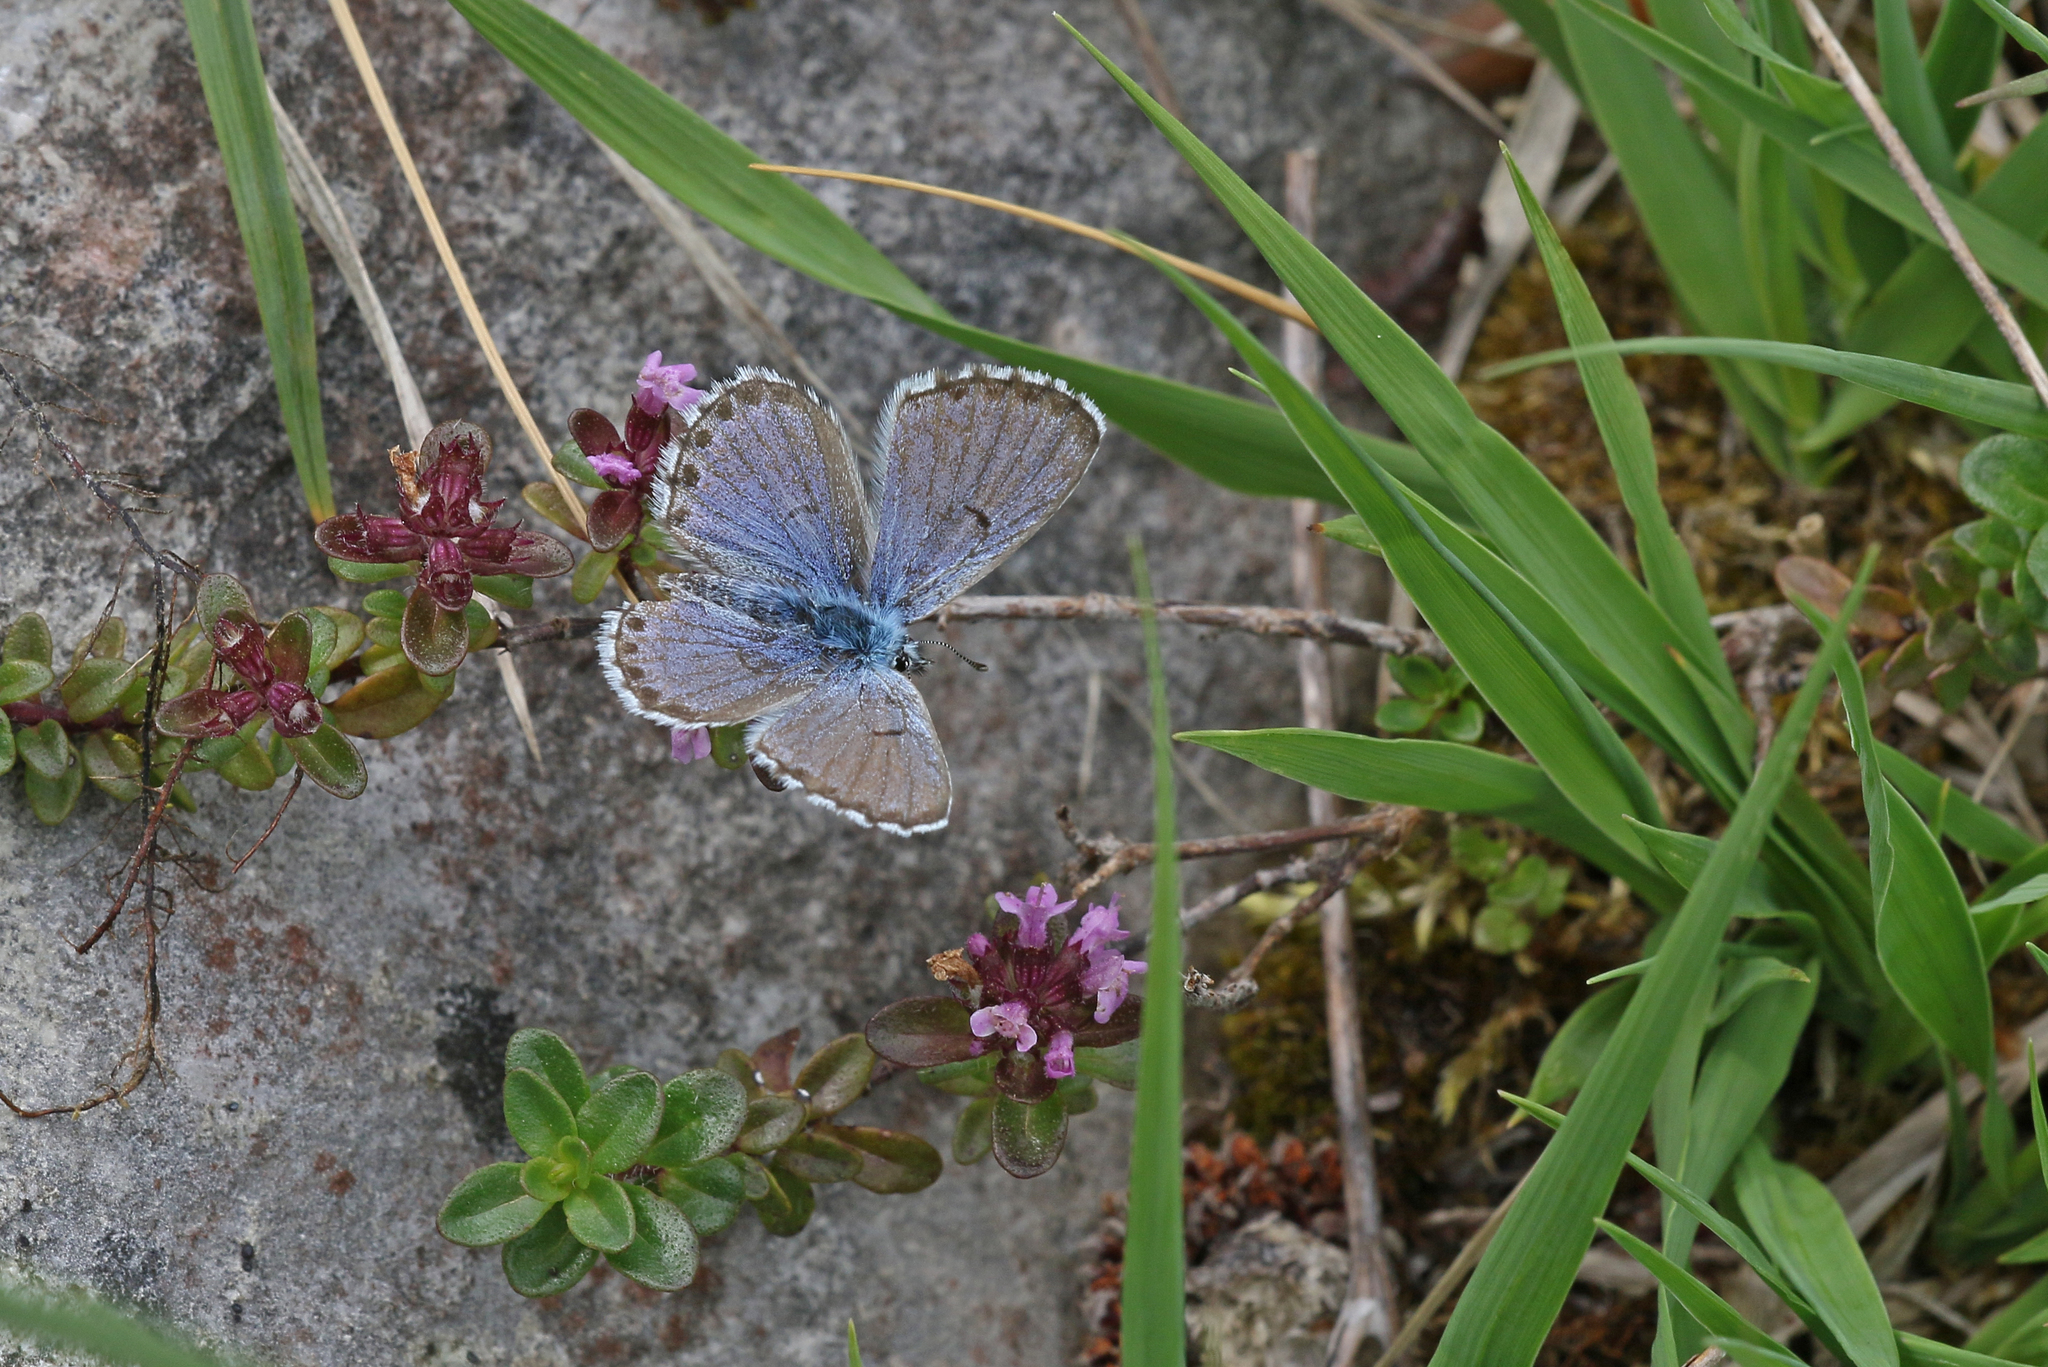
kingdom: Animalia
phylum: Arthropoda
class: Insecta
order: Lepidoptera
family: Lycaenidae
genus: Pseudophilotes
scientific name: Pseudophilotes baton
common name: Baton blue
